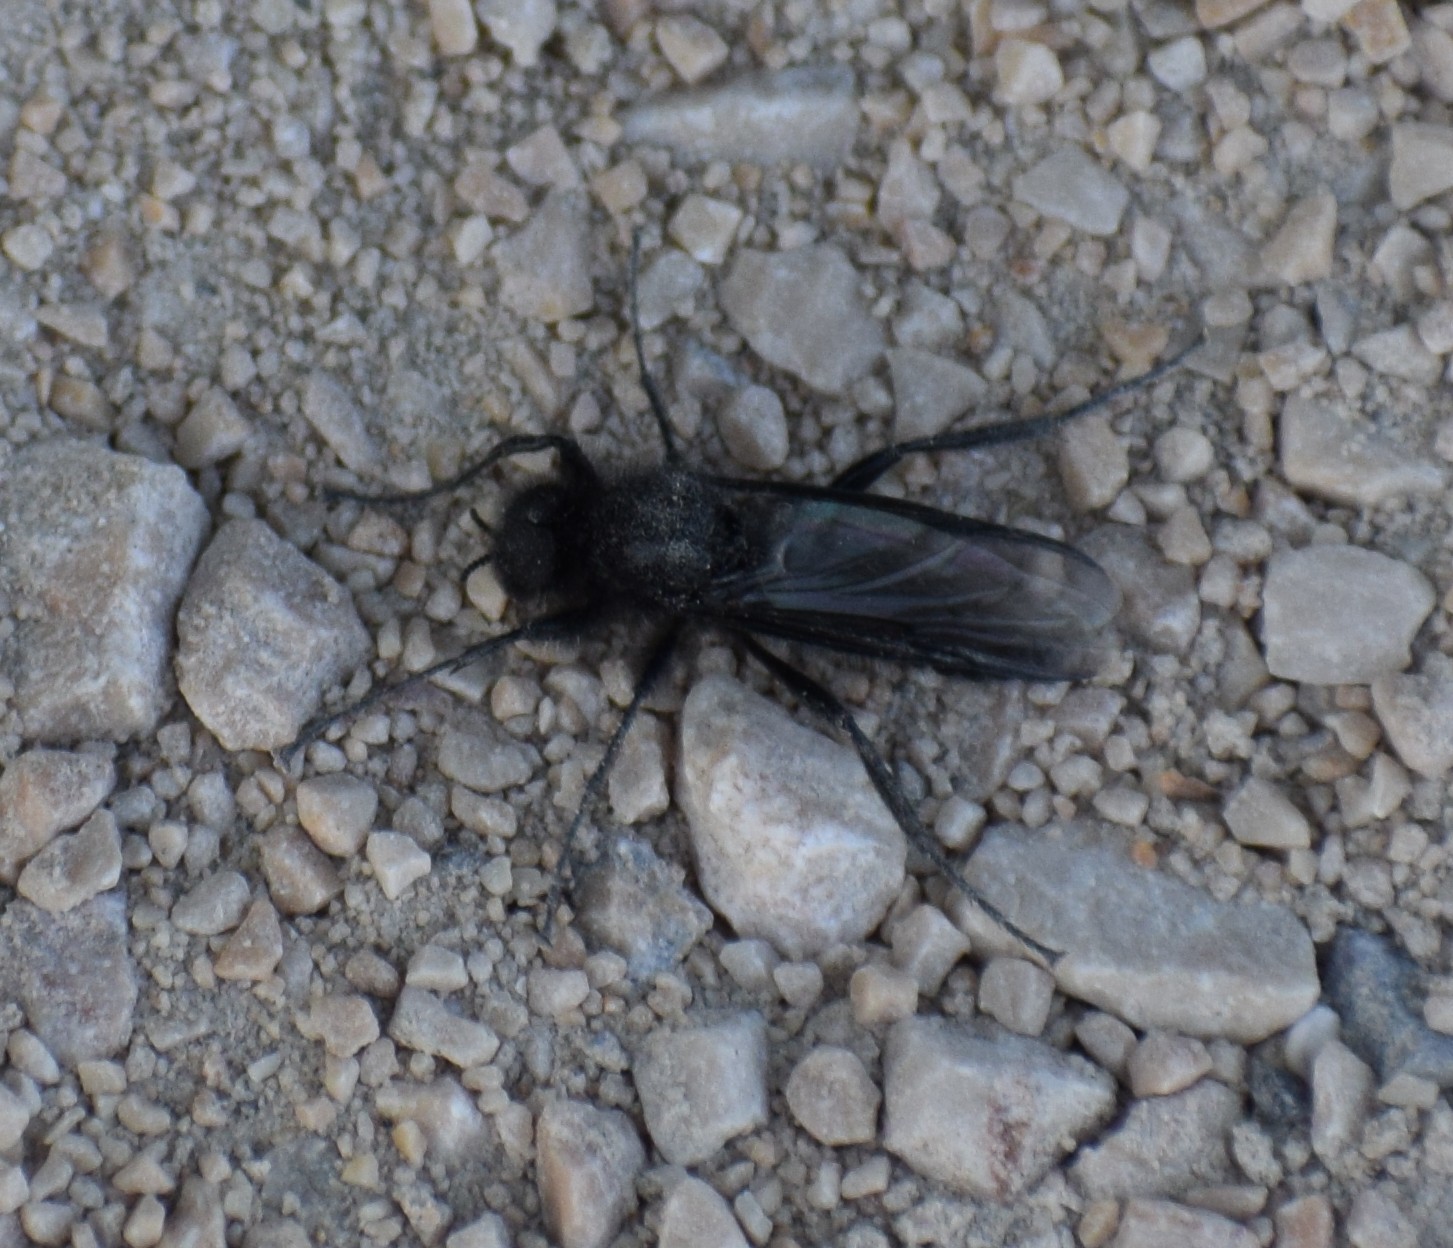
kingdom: Animalia
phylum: Arthropoda
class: Insecta
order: Diptera
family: Bibionidae
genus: Bibio
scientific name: Bibio marci
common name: St marks fly
